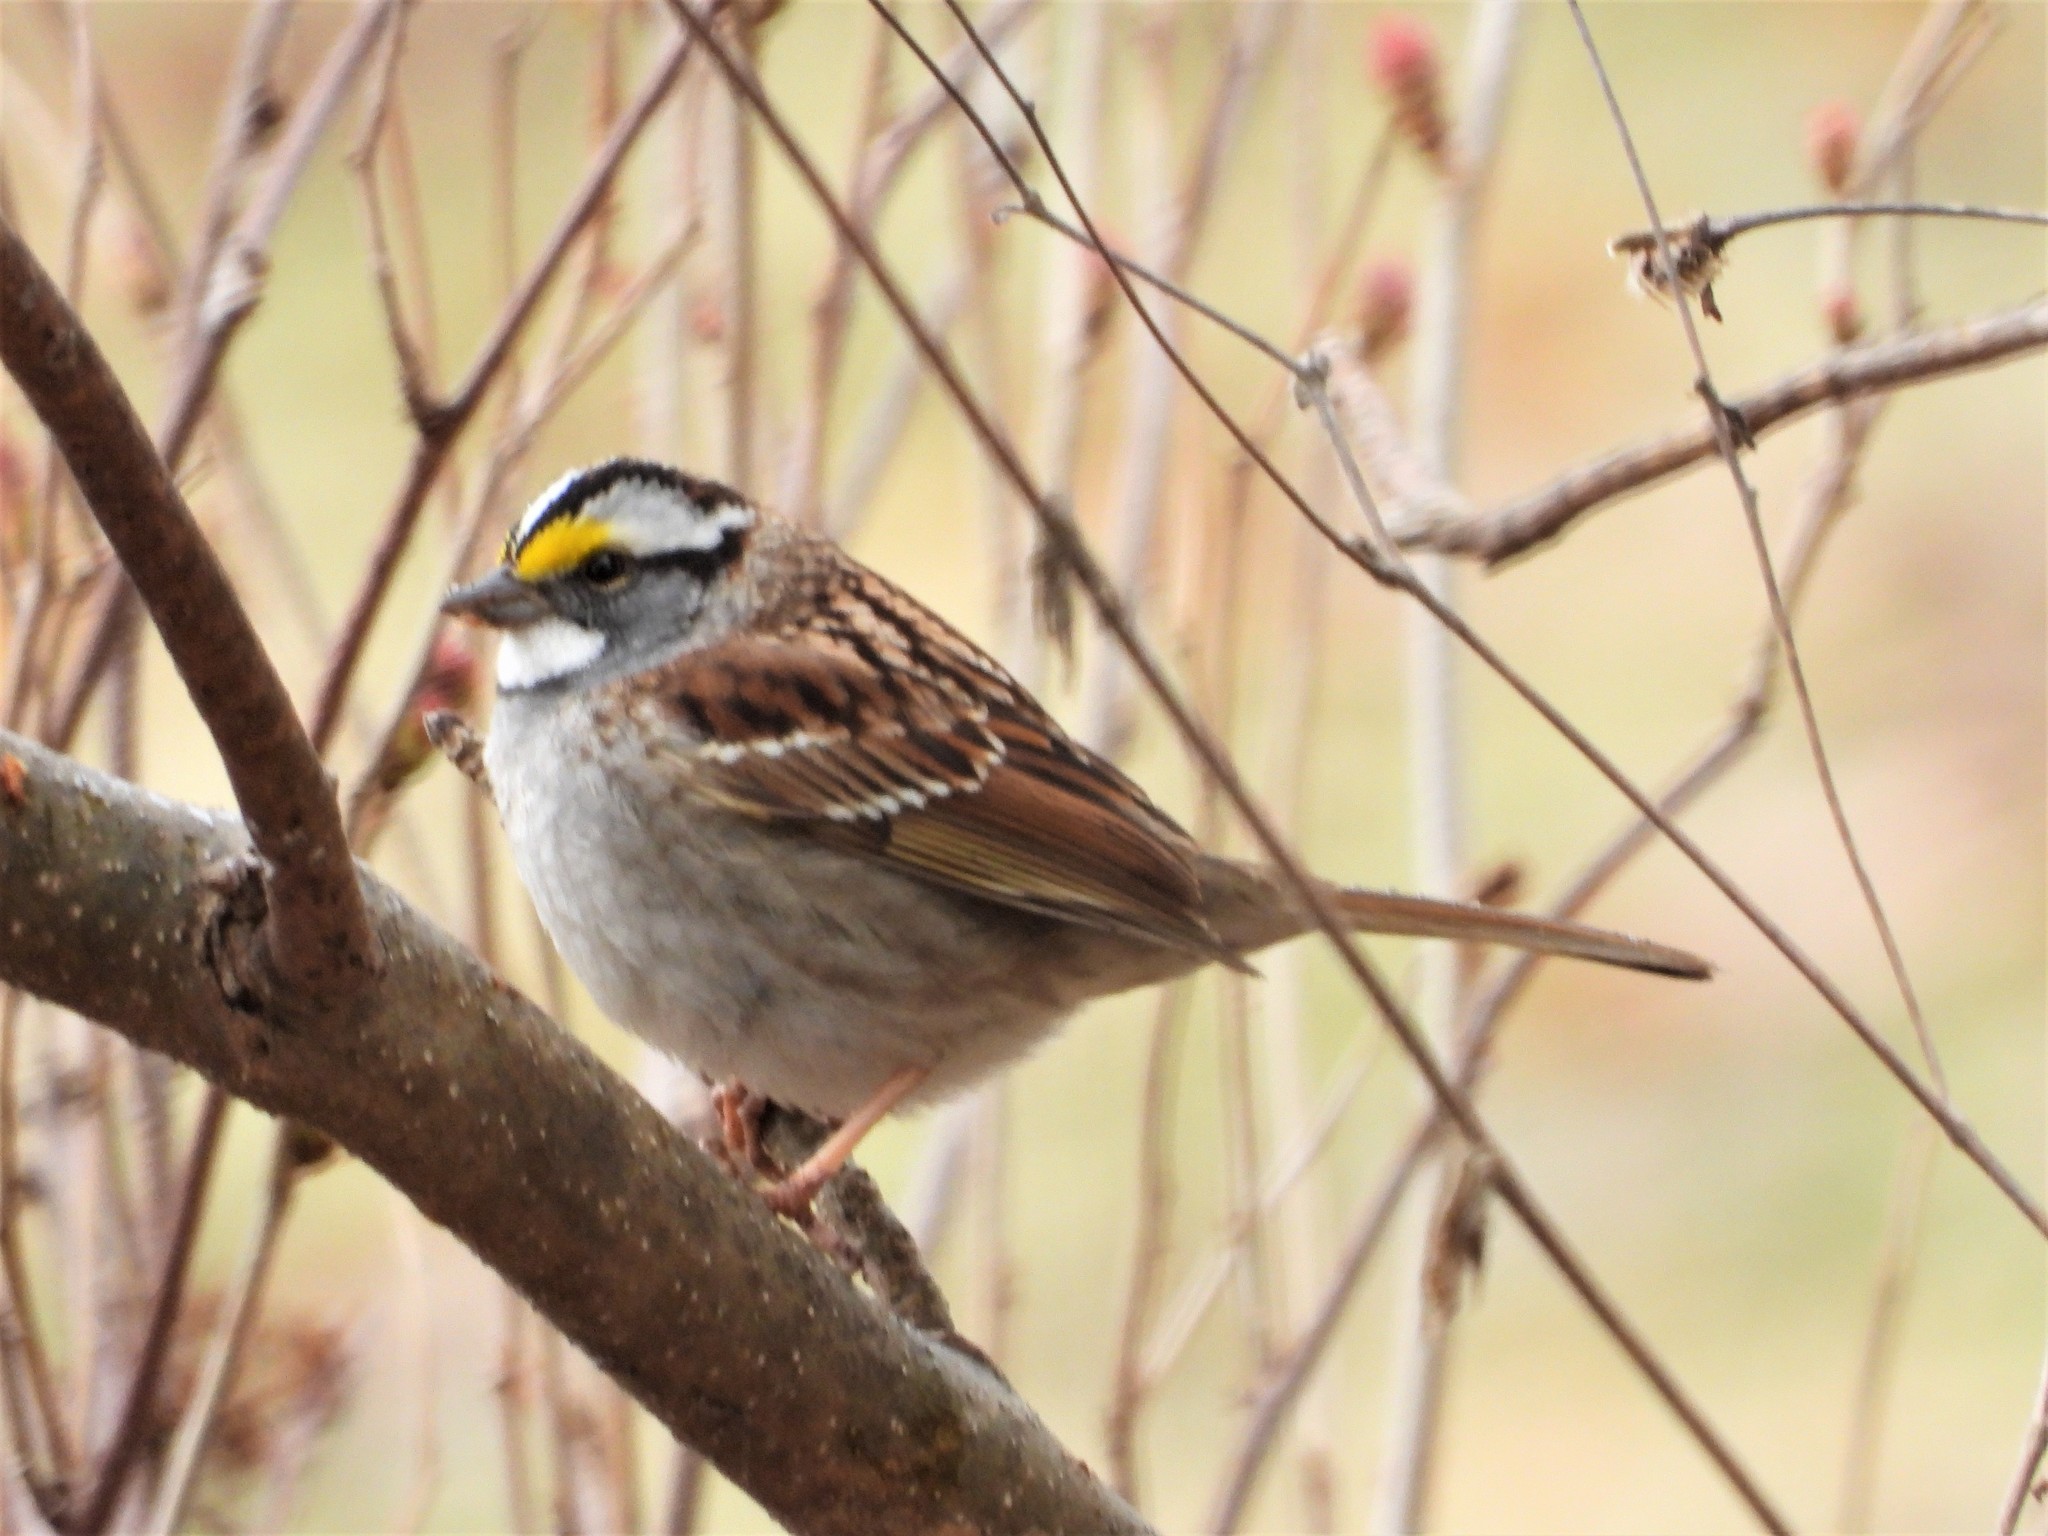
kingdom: Animalia
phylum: Chordata
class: Aves
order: Passeriformes
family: Passerellidae
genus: Zonotrichia
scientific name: Zonotrichia albicollis
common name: White-throated sparrow
